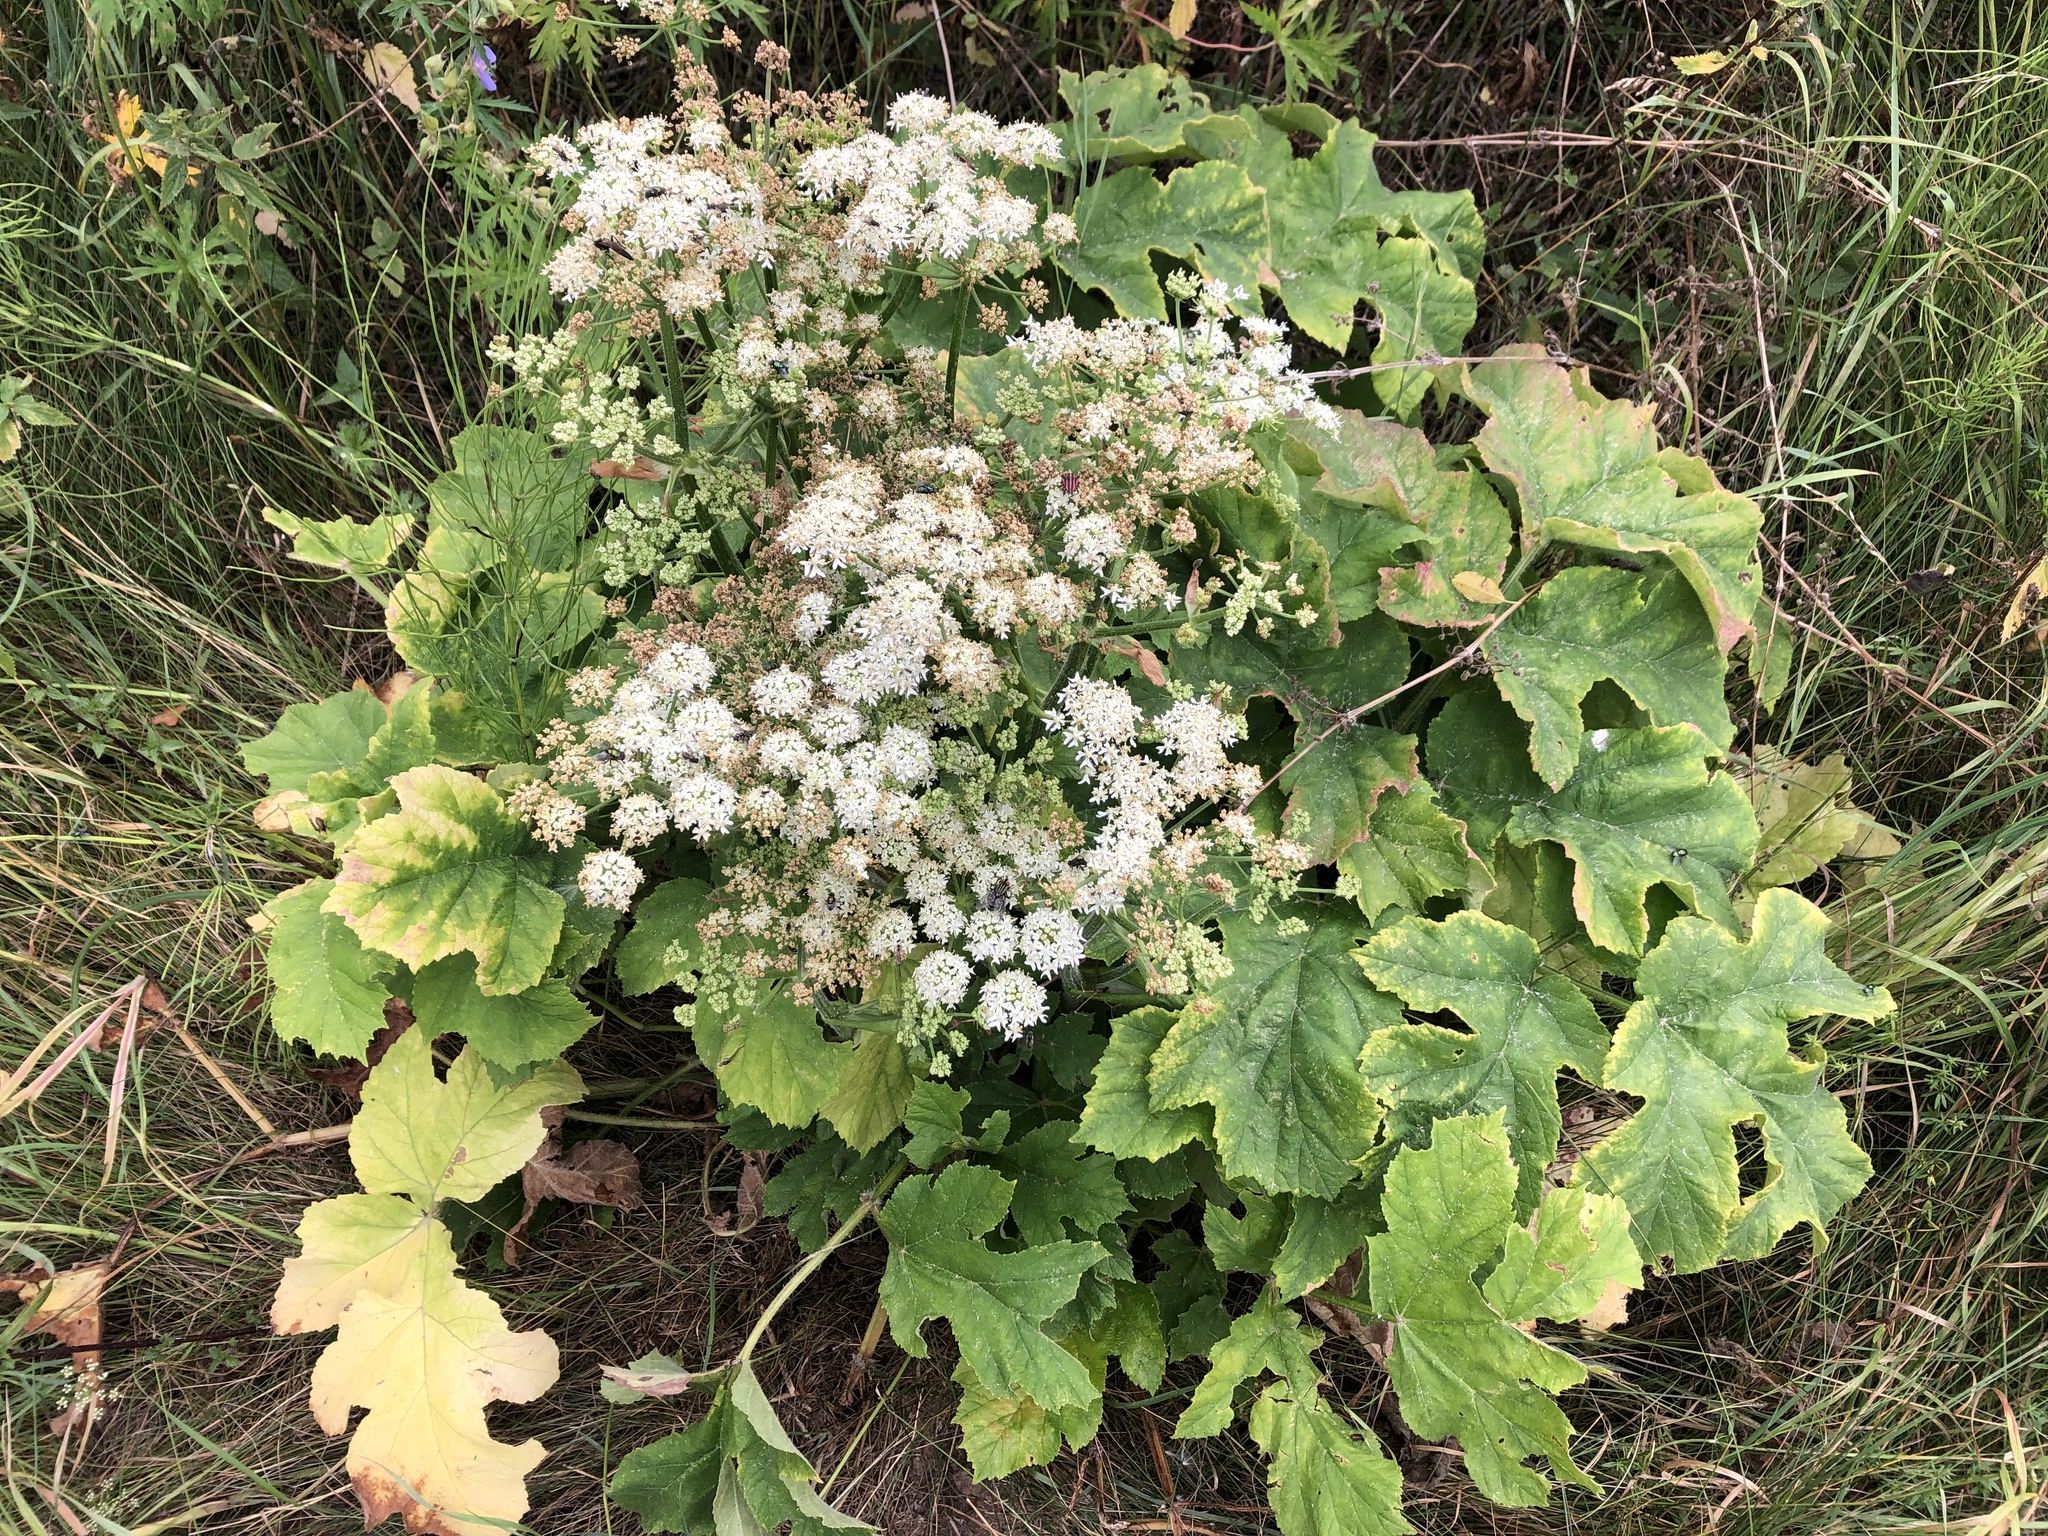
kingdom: Plantae
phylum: Tracheophyta
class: Magnoliopsida
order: Apiales
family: Apiaceae
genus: Heracleum
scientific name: Heracleum sphondylium
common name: Hogweed
